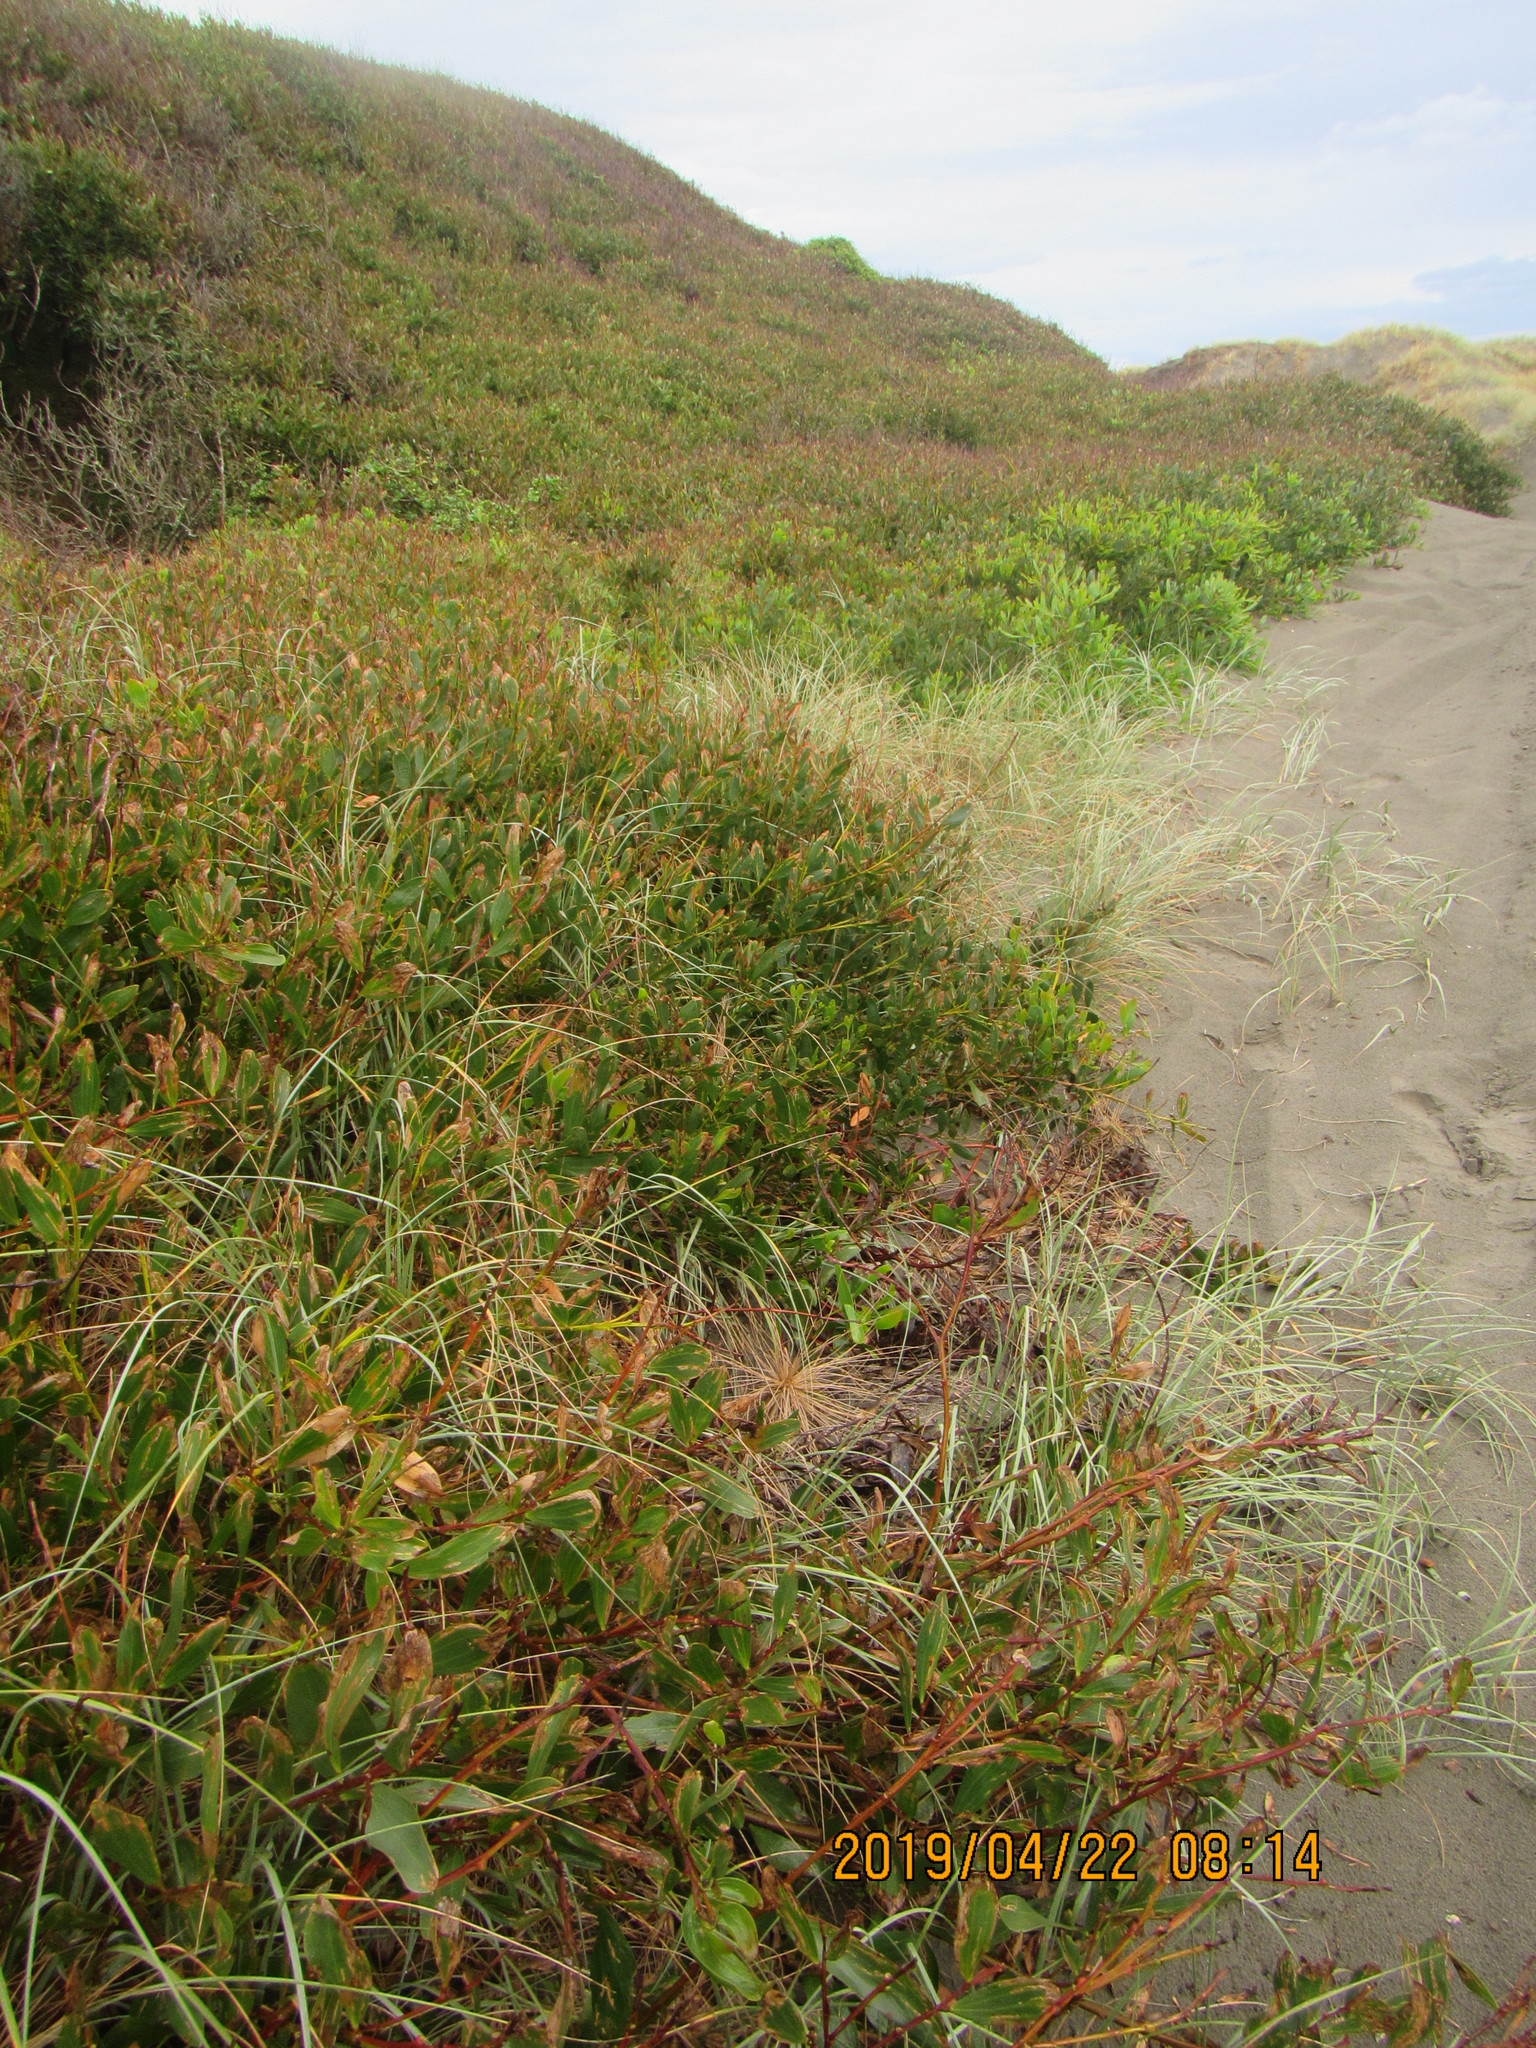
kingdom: Plantae
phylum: Tracheophyta
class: Magnoliopsida
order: Fabales
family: Fabaceae
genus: Acacia
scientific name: Acacia longifolia
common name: Sydney golden wattle
